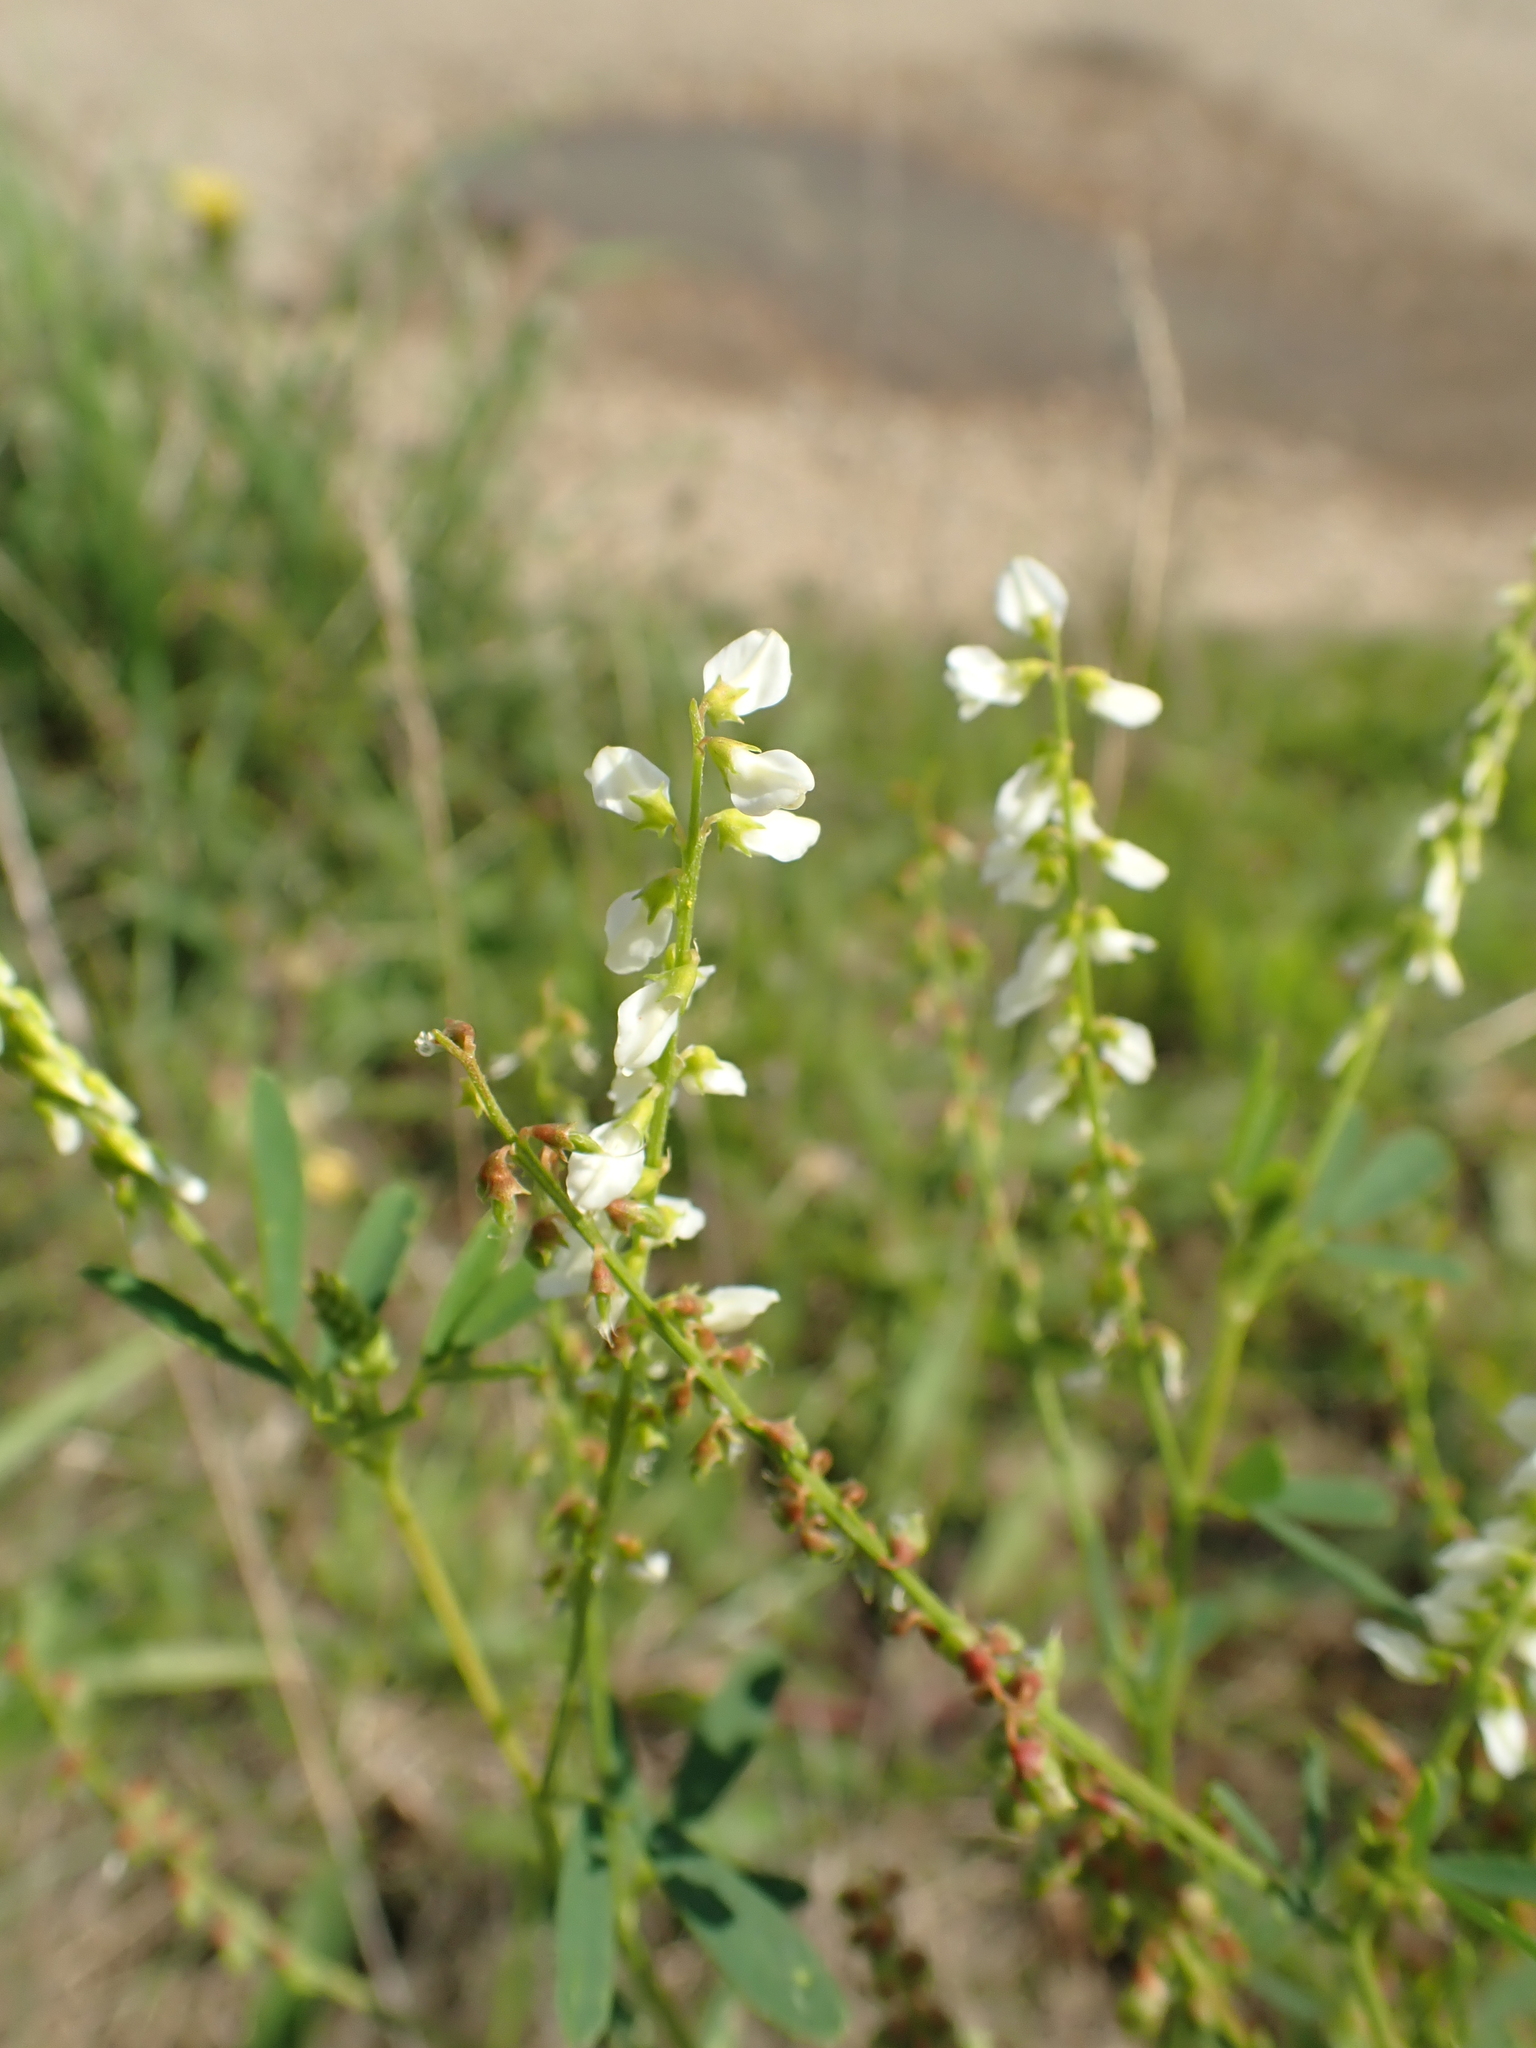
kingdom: Plantae
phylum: Tracheophyta
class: Magnoliopsida
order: Fabales
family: Fabaceae
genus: Melilotus
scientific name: Melilotus albus
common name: White melilot
